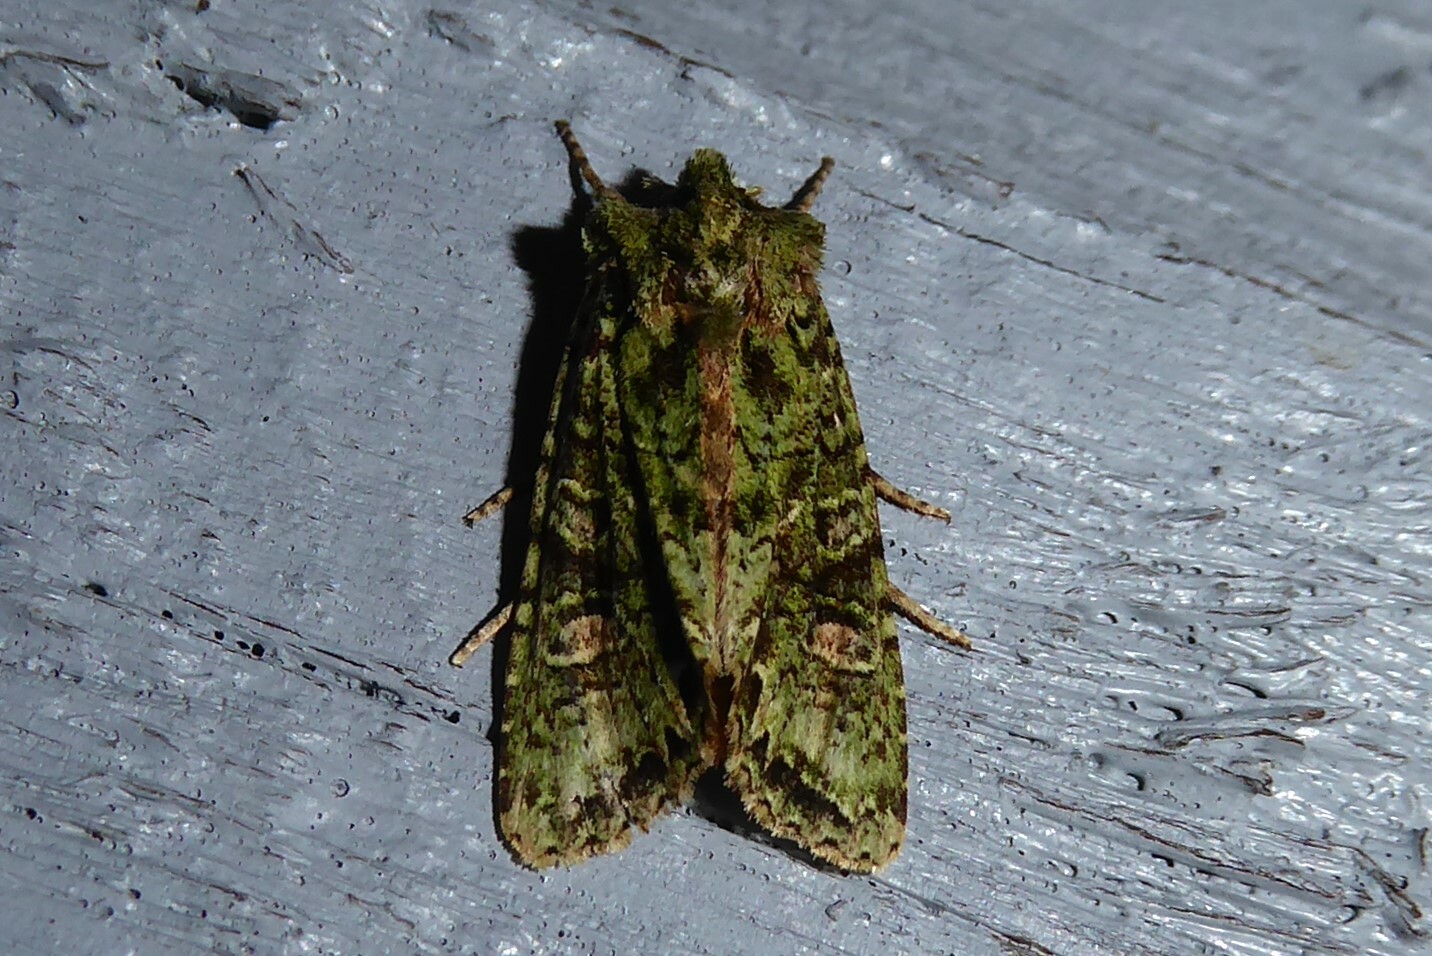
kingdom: Animalia
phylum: Arthropoda
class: Insecta
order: Lepidoptera
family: Noctuidae
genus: Ichneutica
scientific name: Ichneutica
